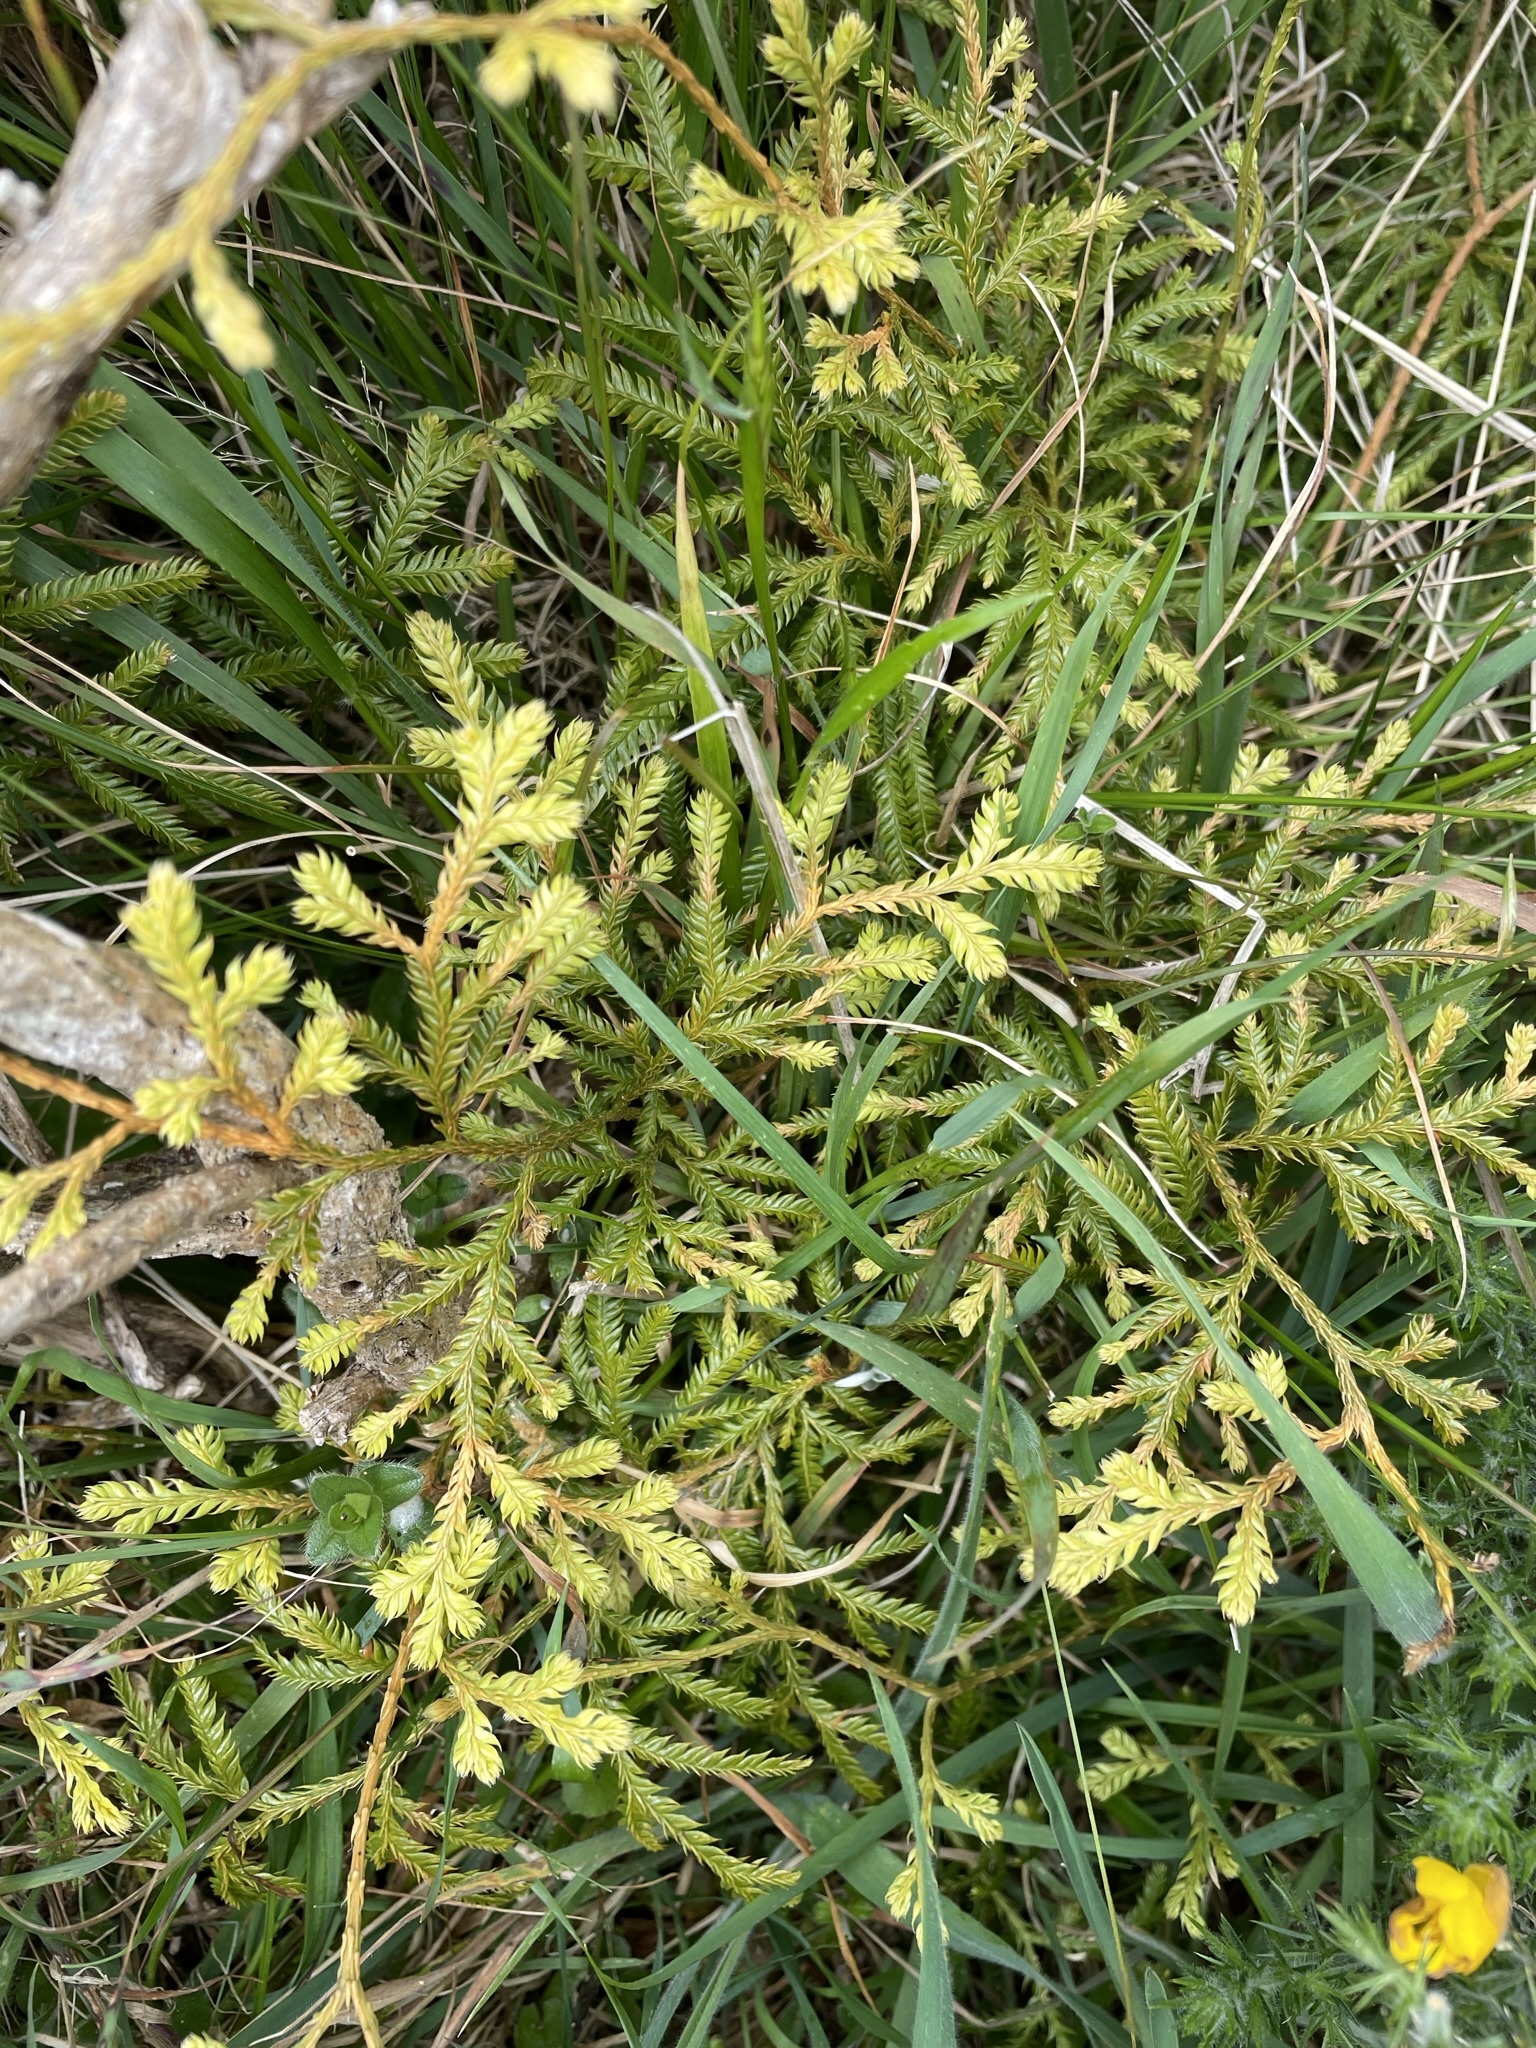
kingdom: Plantae
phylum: Tracheophyta
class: Lycopodiopsida
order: Lycopodiales
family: Lycopodiaceae
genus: Lycopodium
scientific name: Lycopodium volubile
